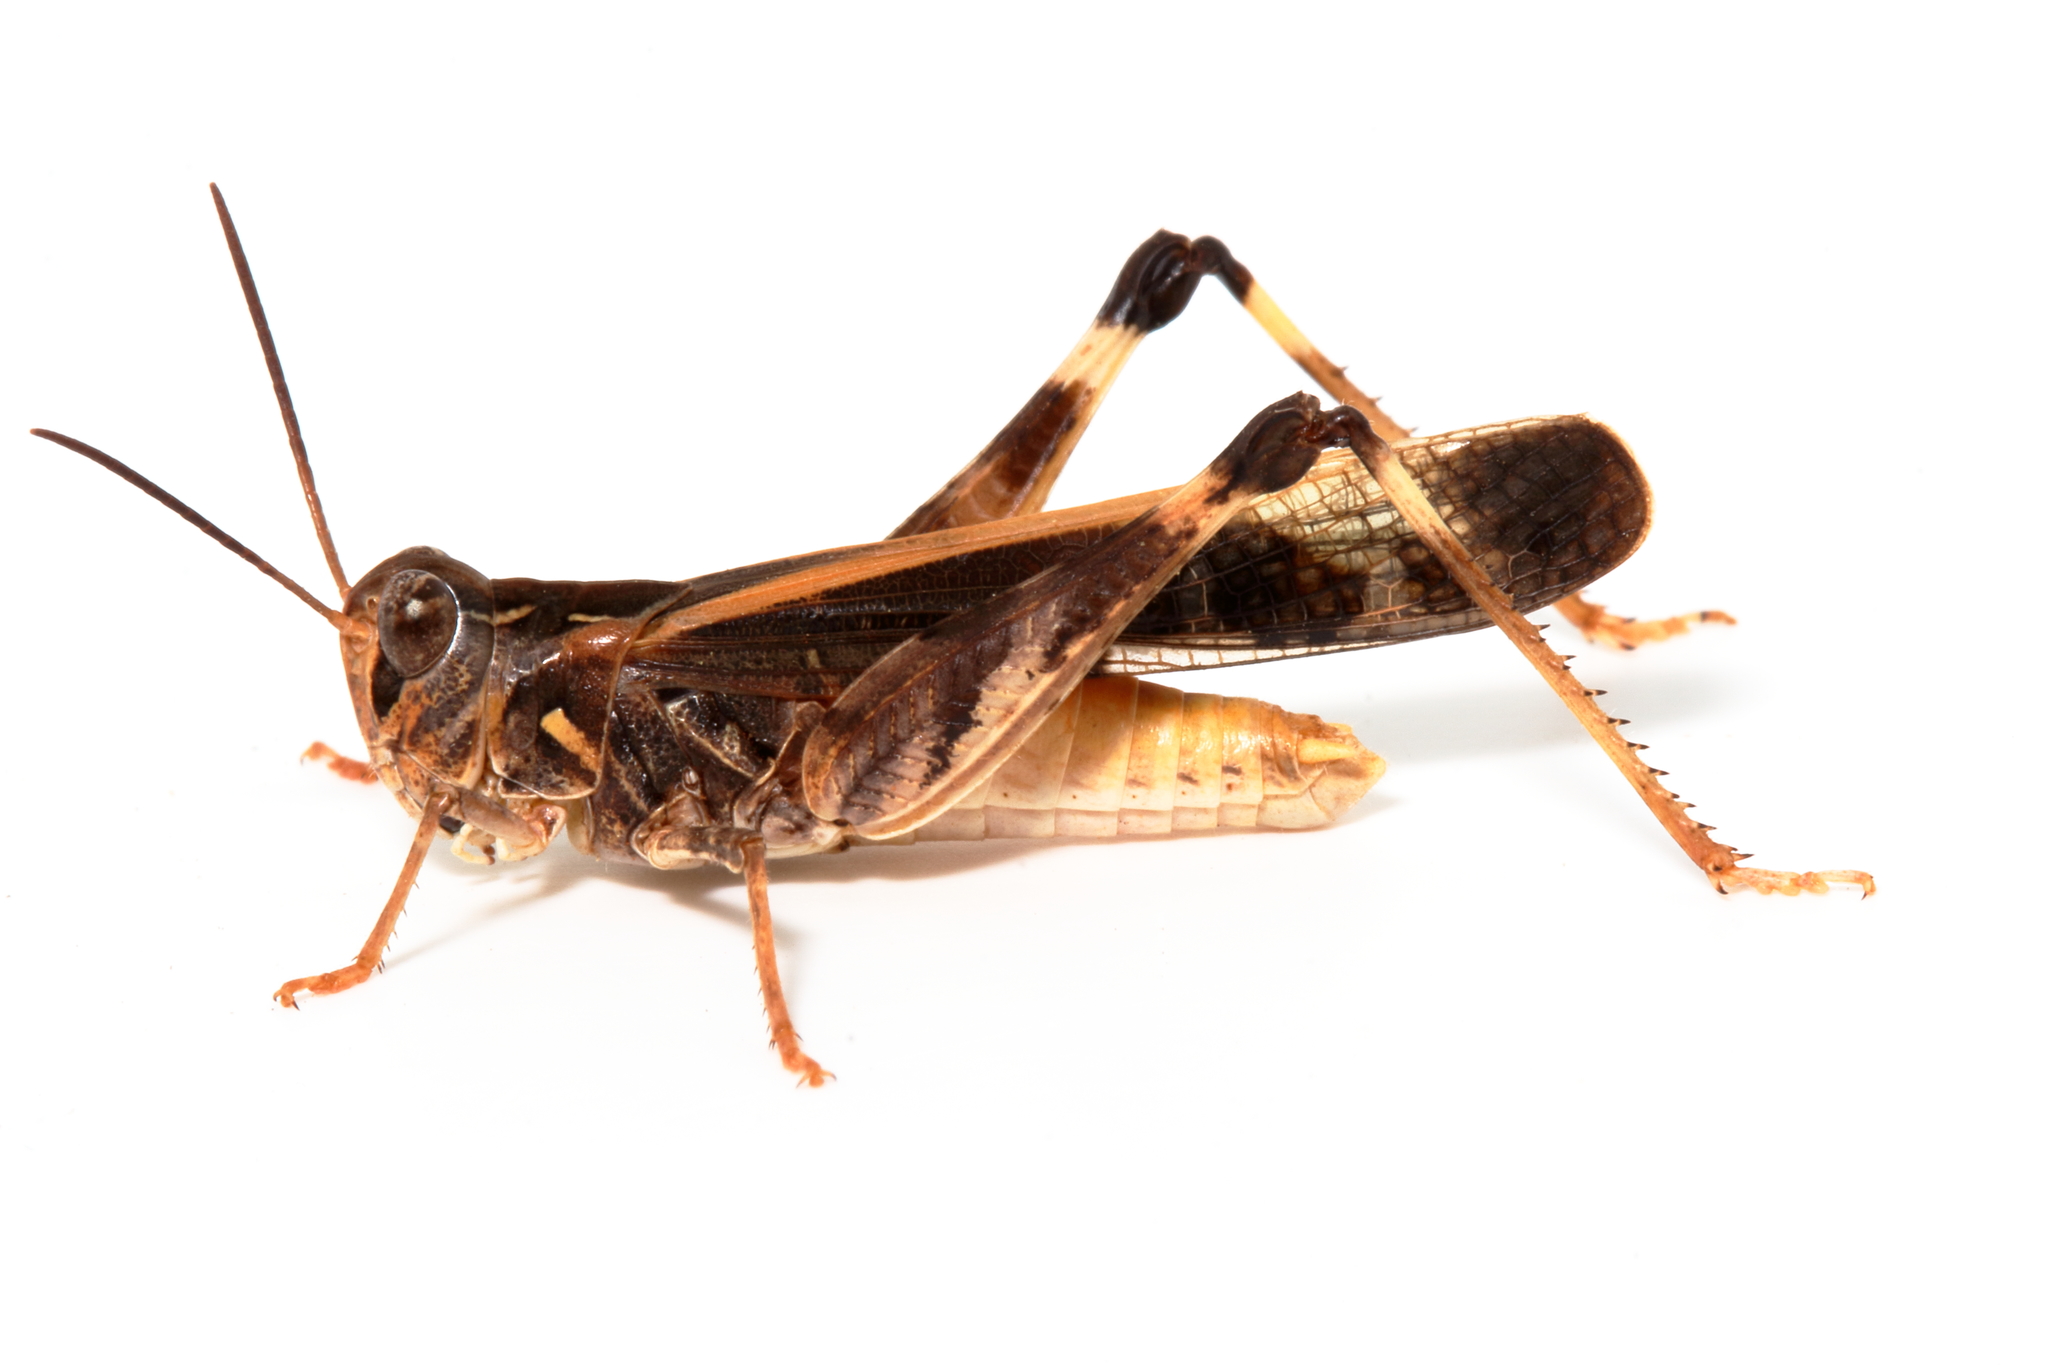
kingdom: Animalia
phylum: Arthropoda
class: Insecta
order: Orthoptera
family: Acrididae
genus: Oedaleus
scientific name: Oedaleus australis
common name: Eastern oedaleus
